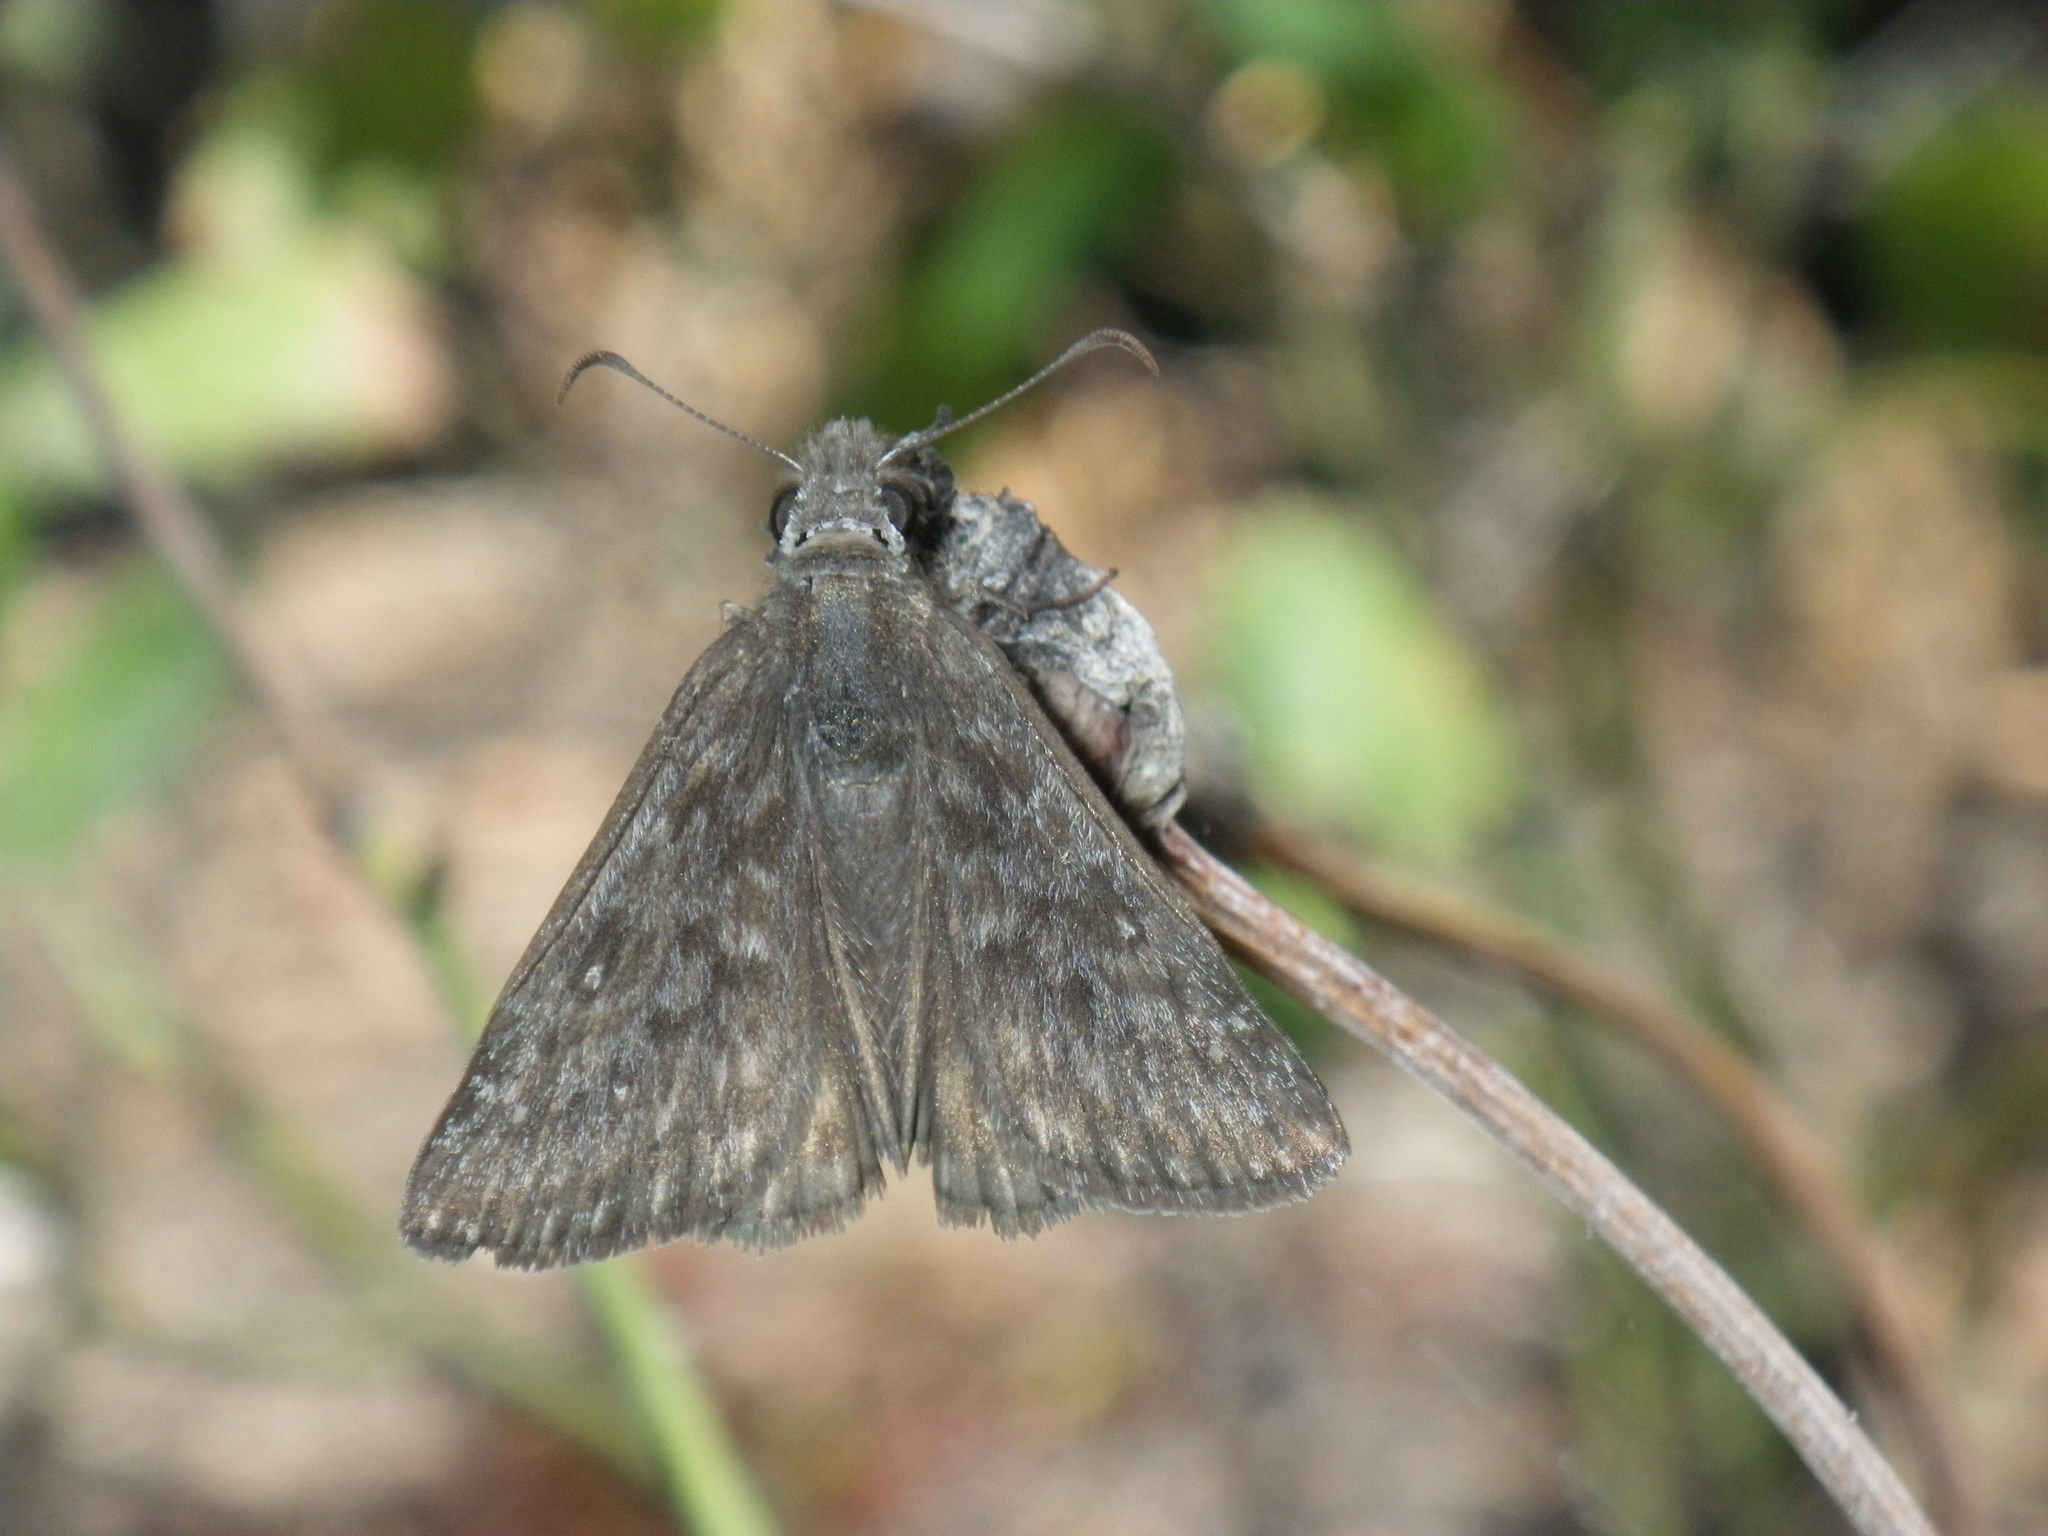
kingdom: Animalia
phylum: Arthropoda
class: Insecta
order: Lepidoptera
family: Hesperiidae
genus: Erynnis
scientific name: Erynnis propertius
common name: Propertius duskywing
